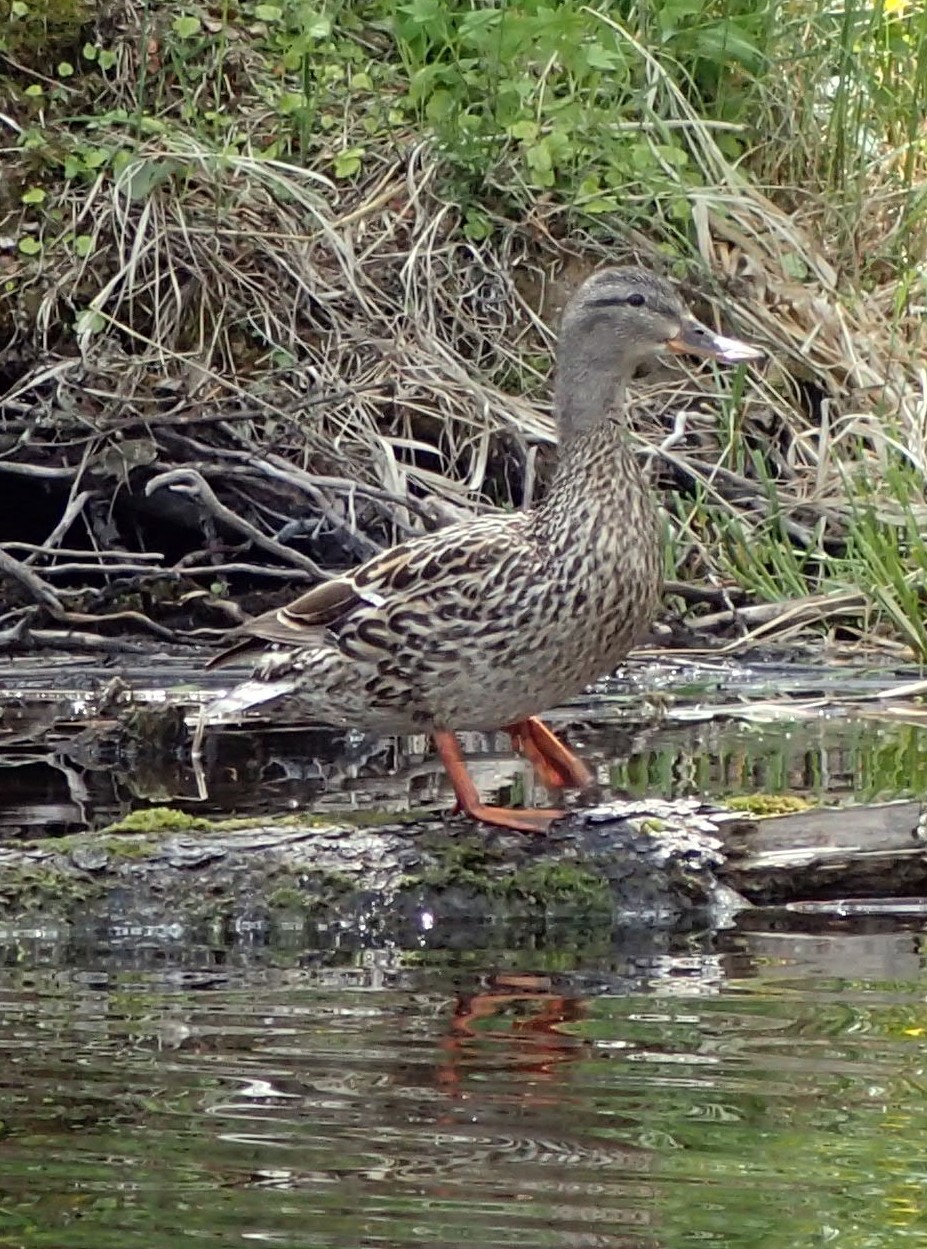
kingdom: Animalia
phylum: Chordata
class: Aves
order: Anseriformes
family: Anatidae
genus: Anas
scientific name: Anas platyrhynchos
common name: Mallard
